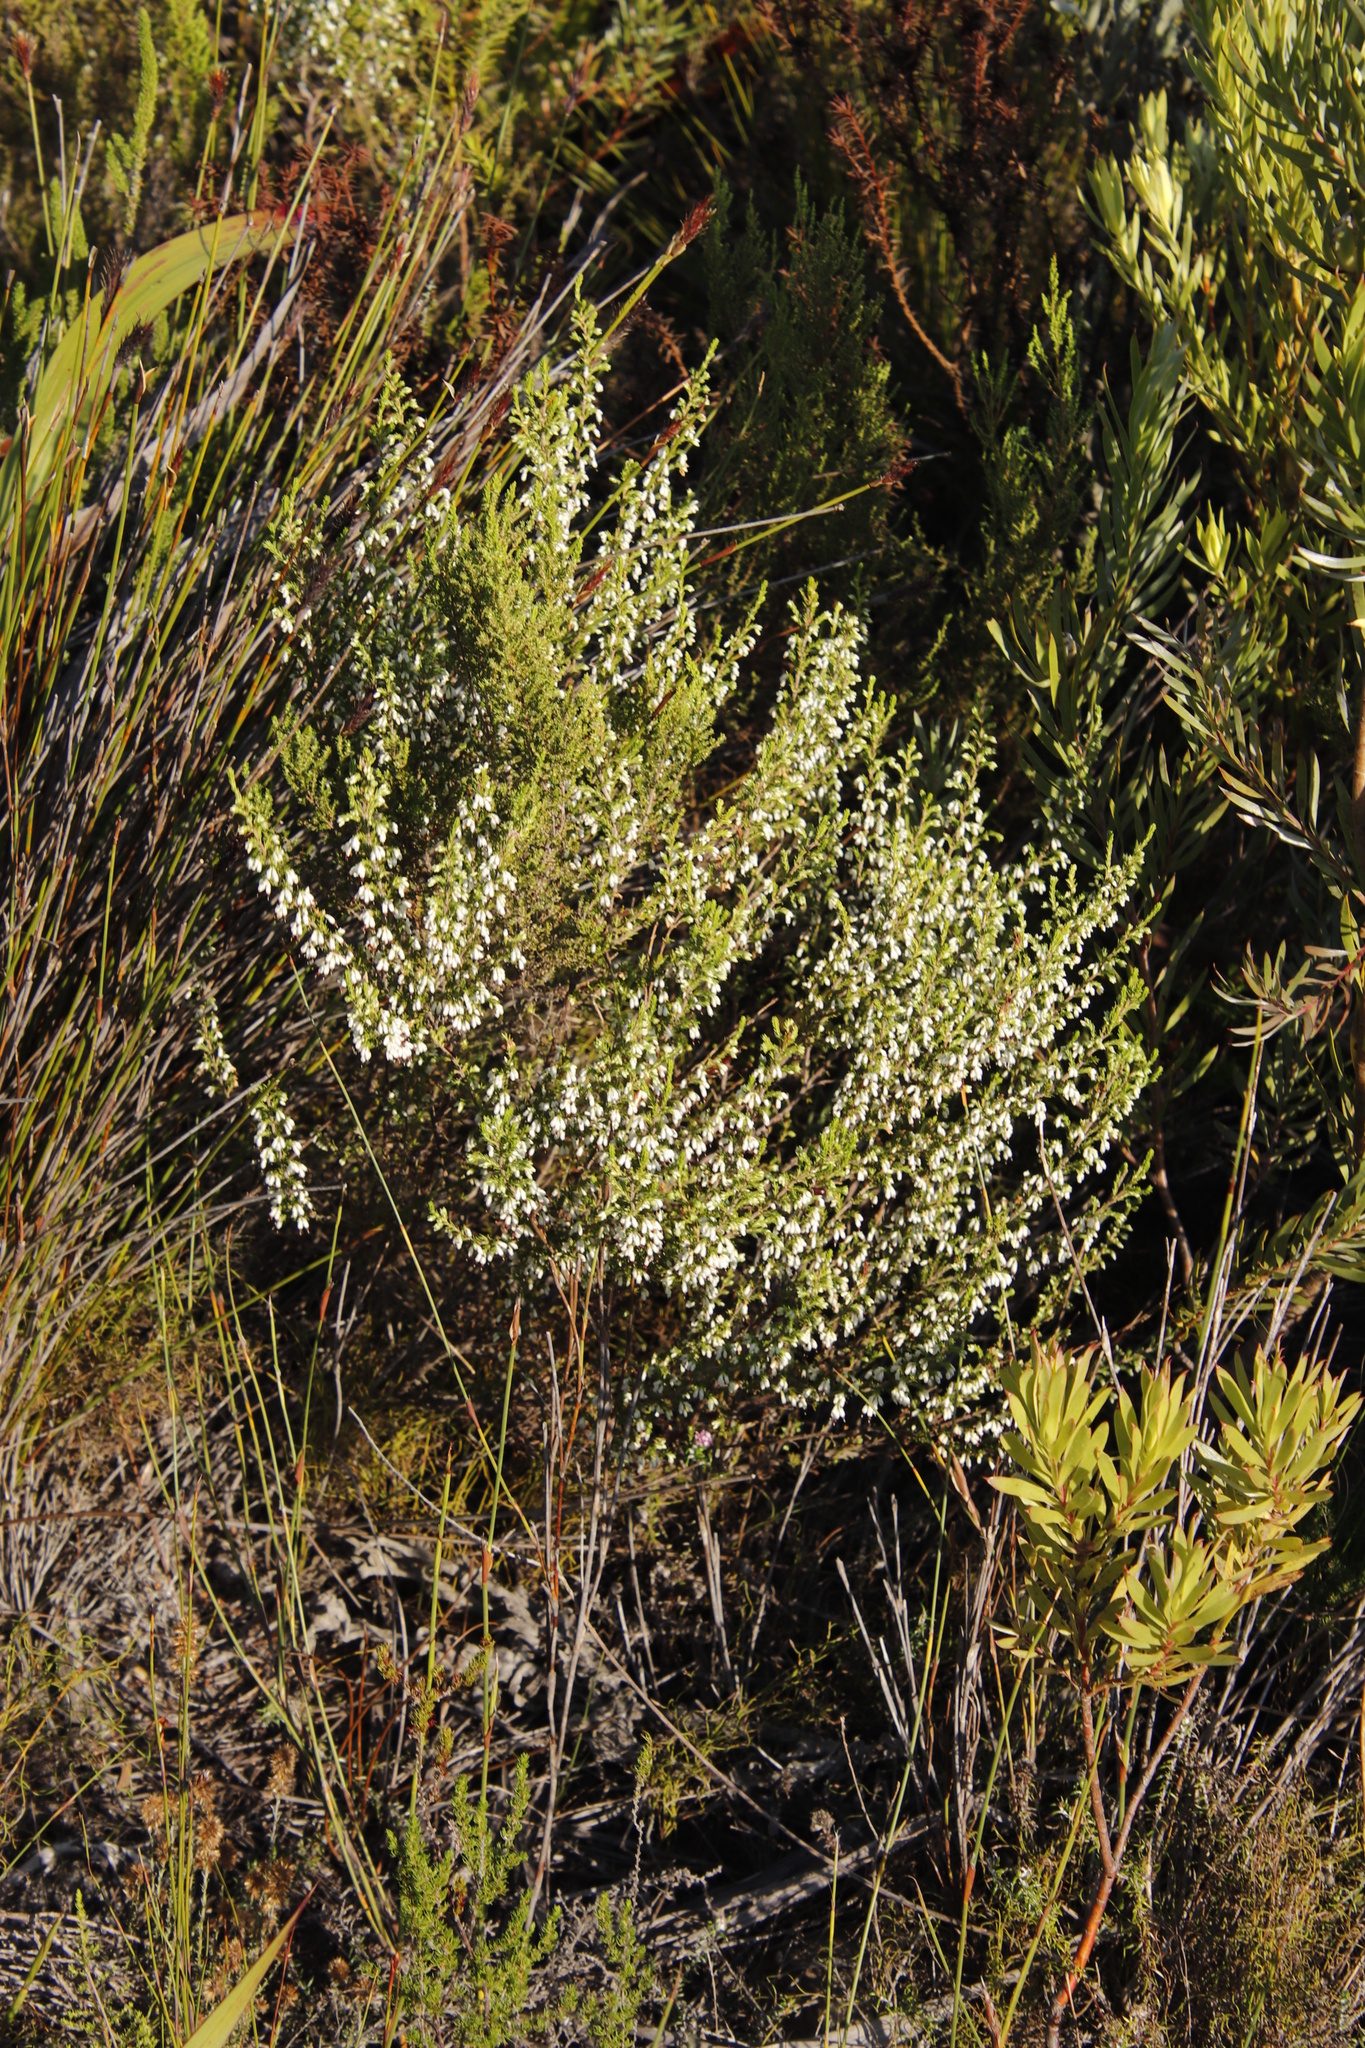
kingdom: Plantae
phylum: Tracheophyta
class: Magnoliopsida
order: Ericales
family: Ericaceae
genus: Erica
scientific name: Erica imbricata
